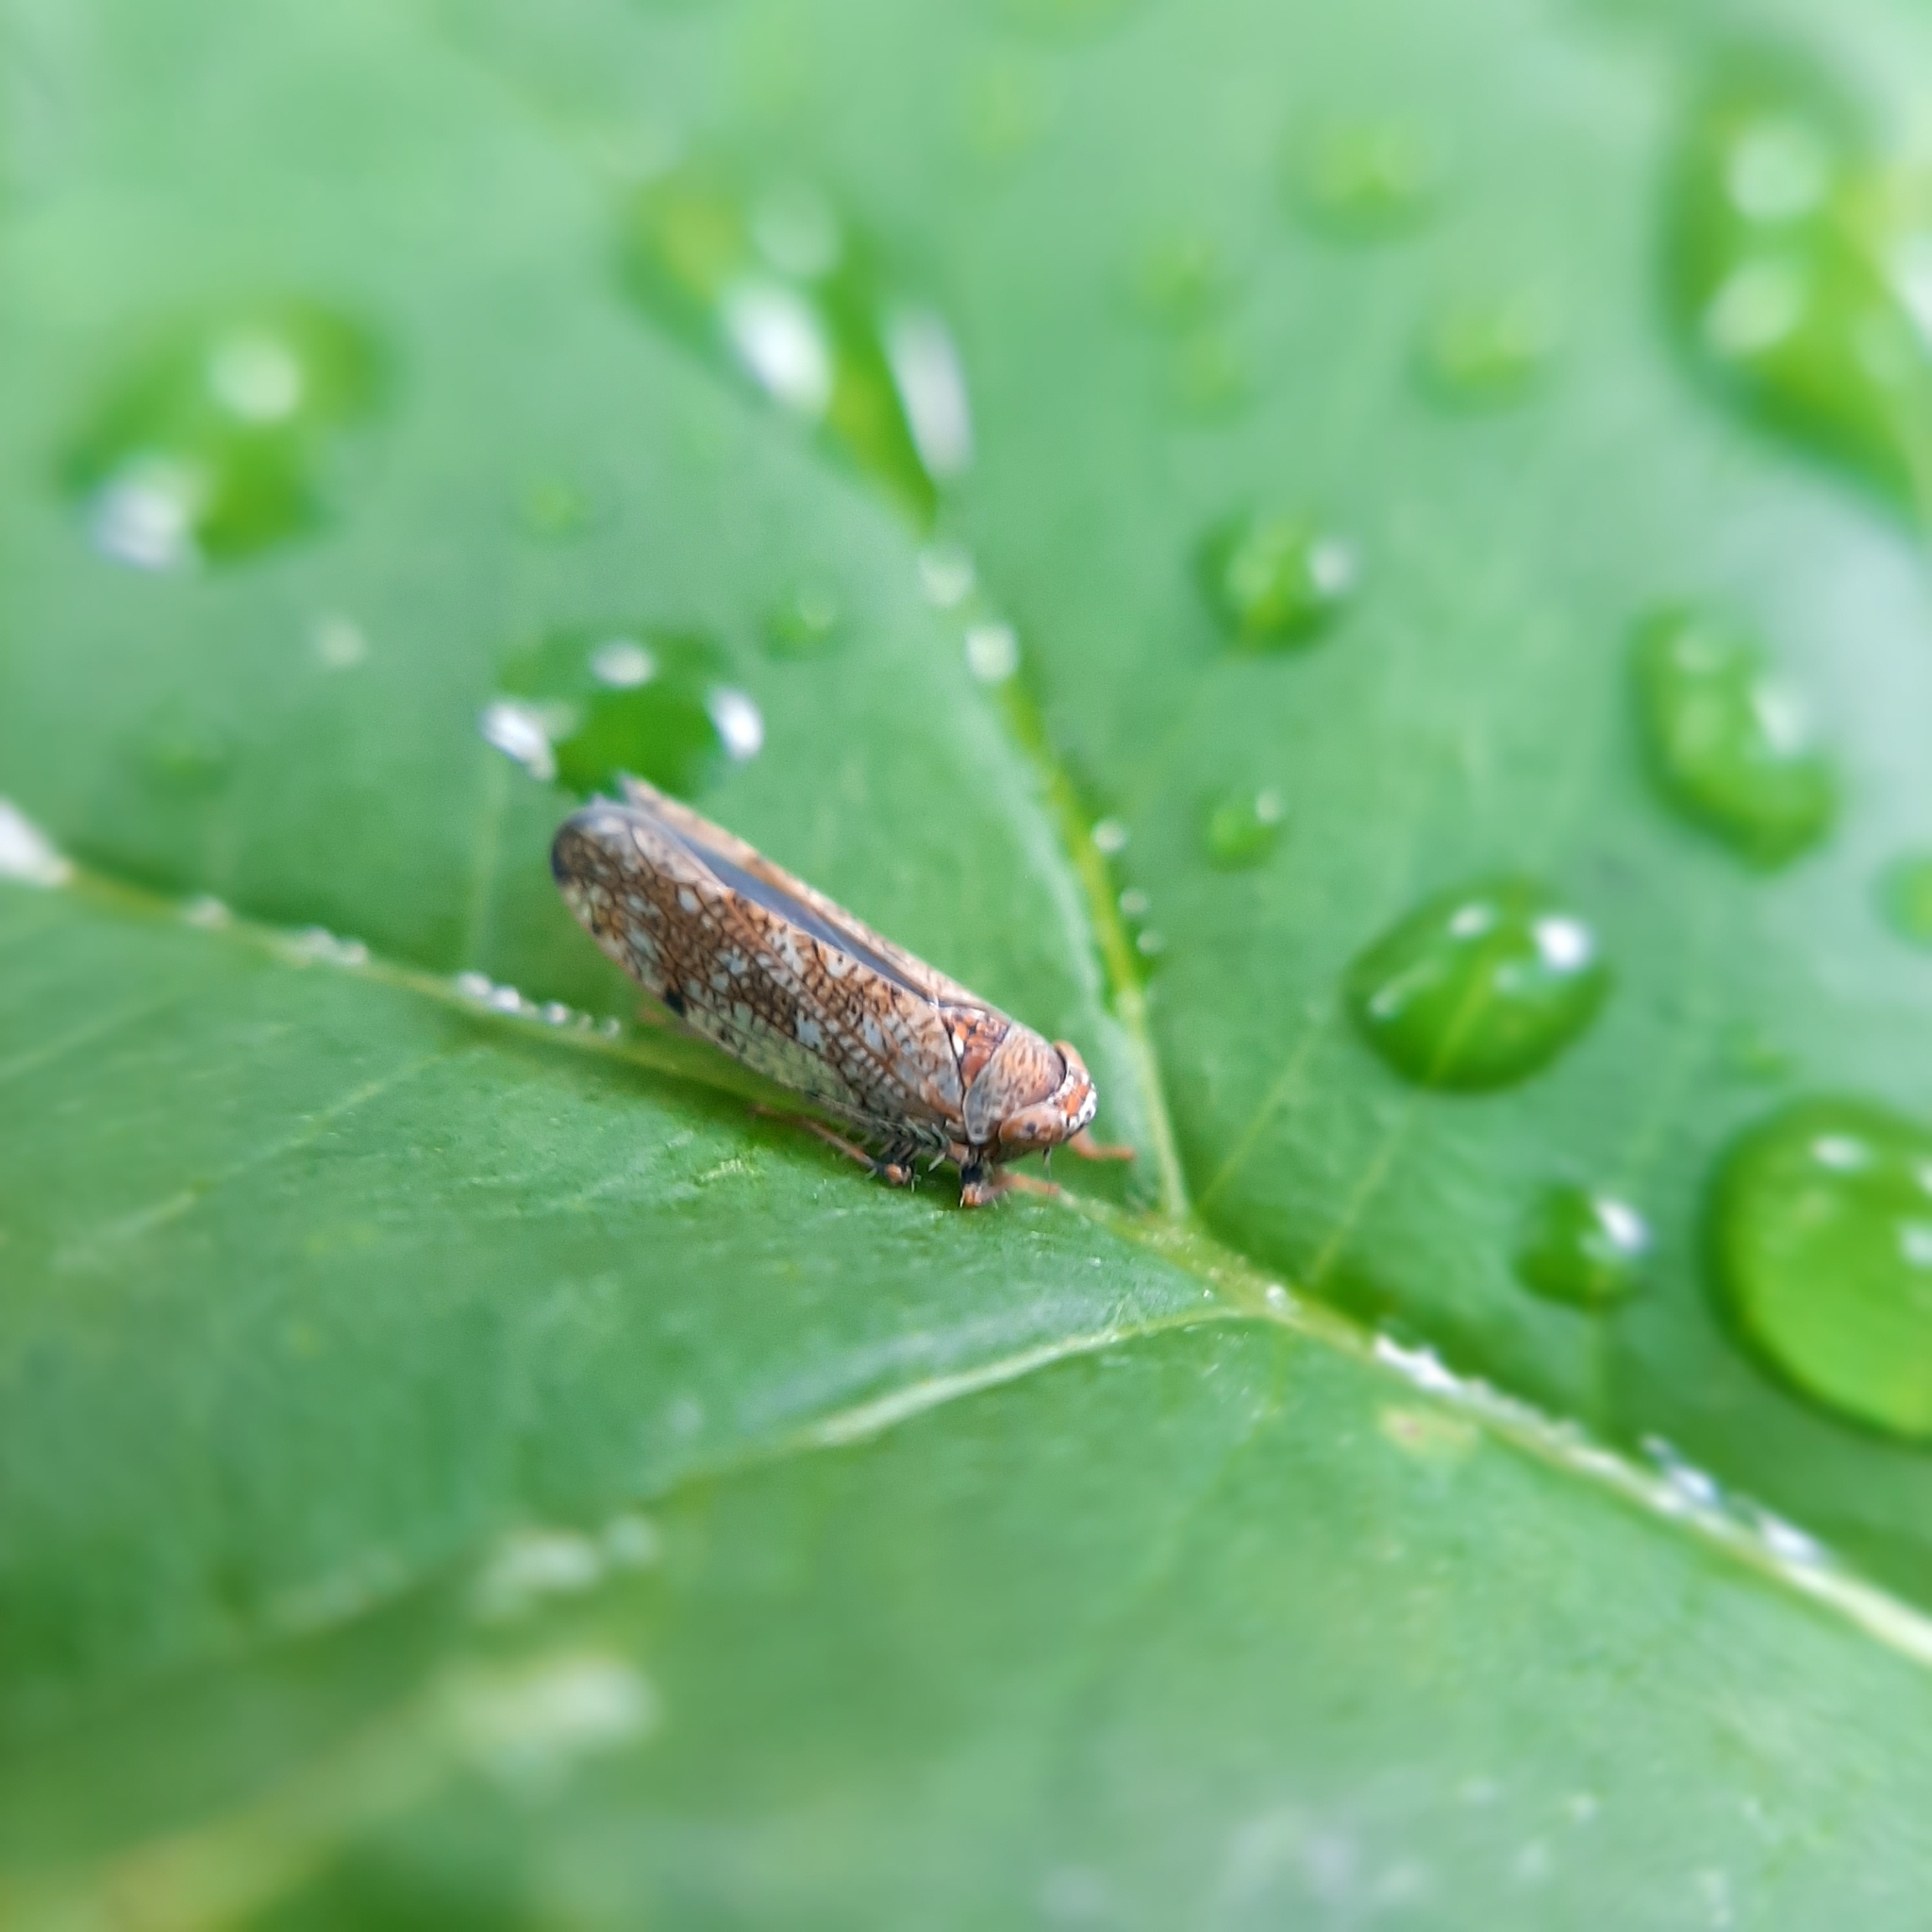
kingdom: Animalia
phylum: Arthropoda
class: Insecta
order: Hemiptera
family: Cicadellidae
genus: Orientus
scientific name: Orientus ishidae
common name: Japanese leafhopper
